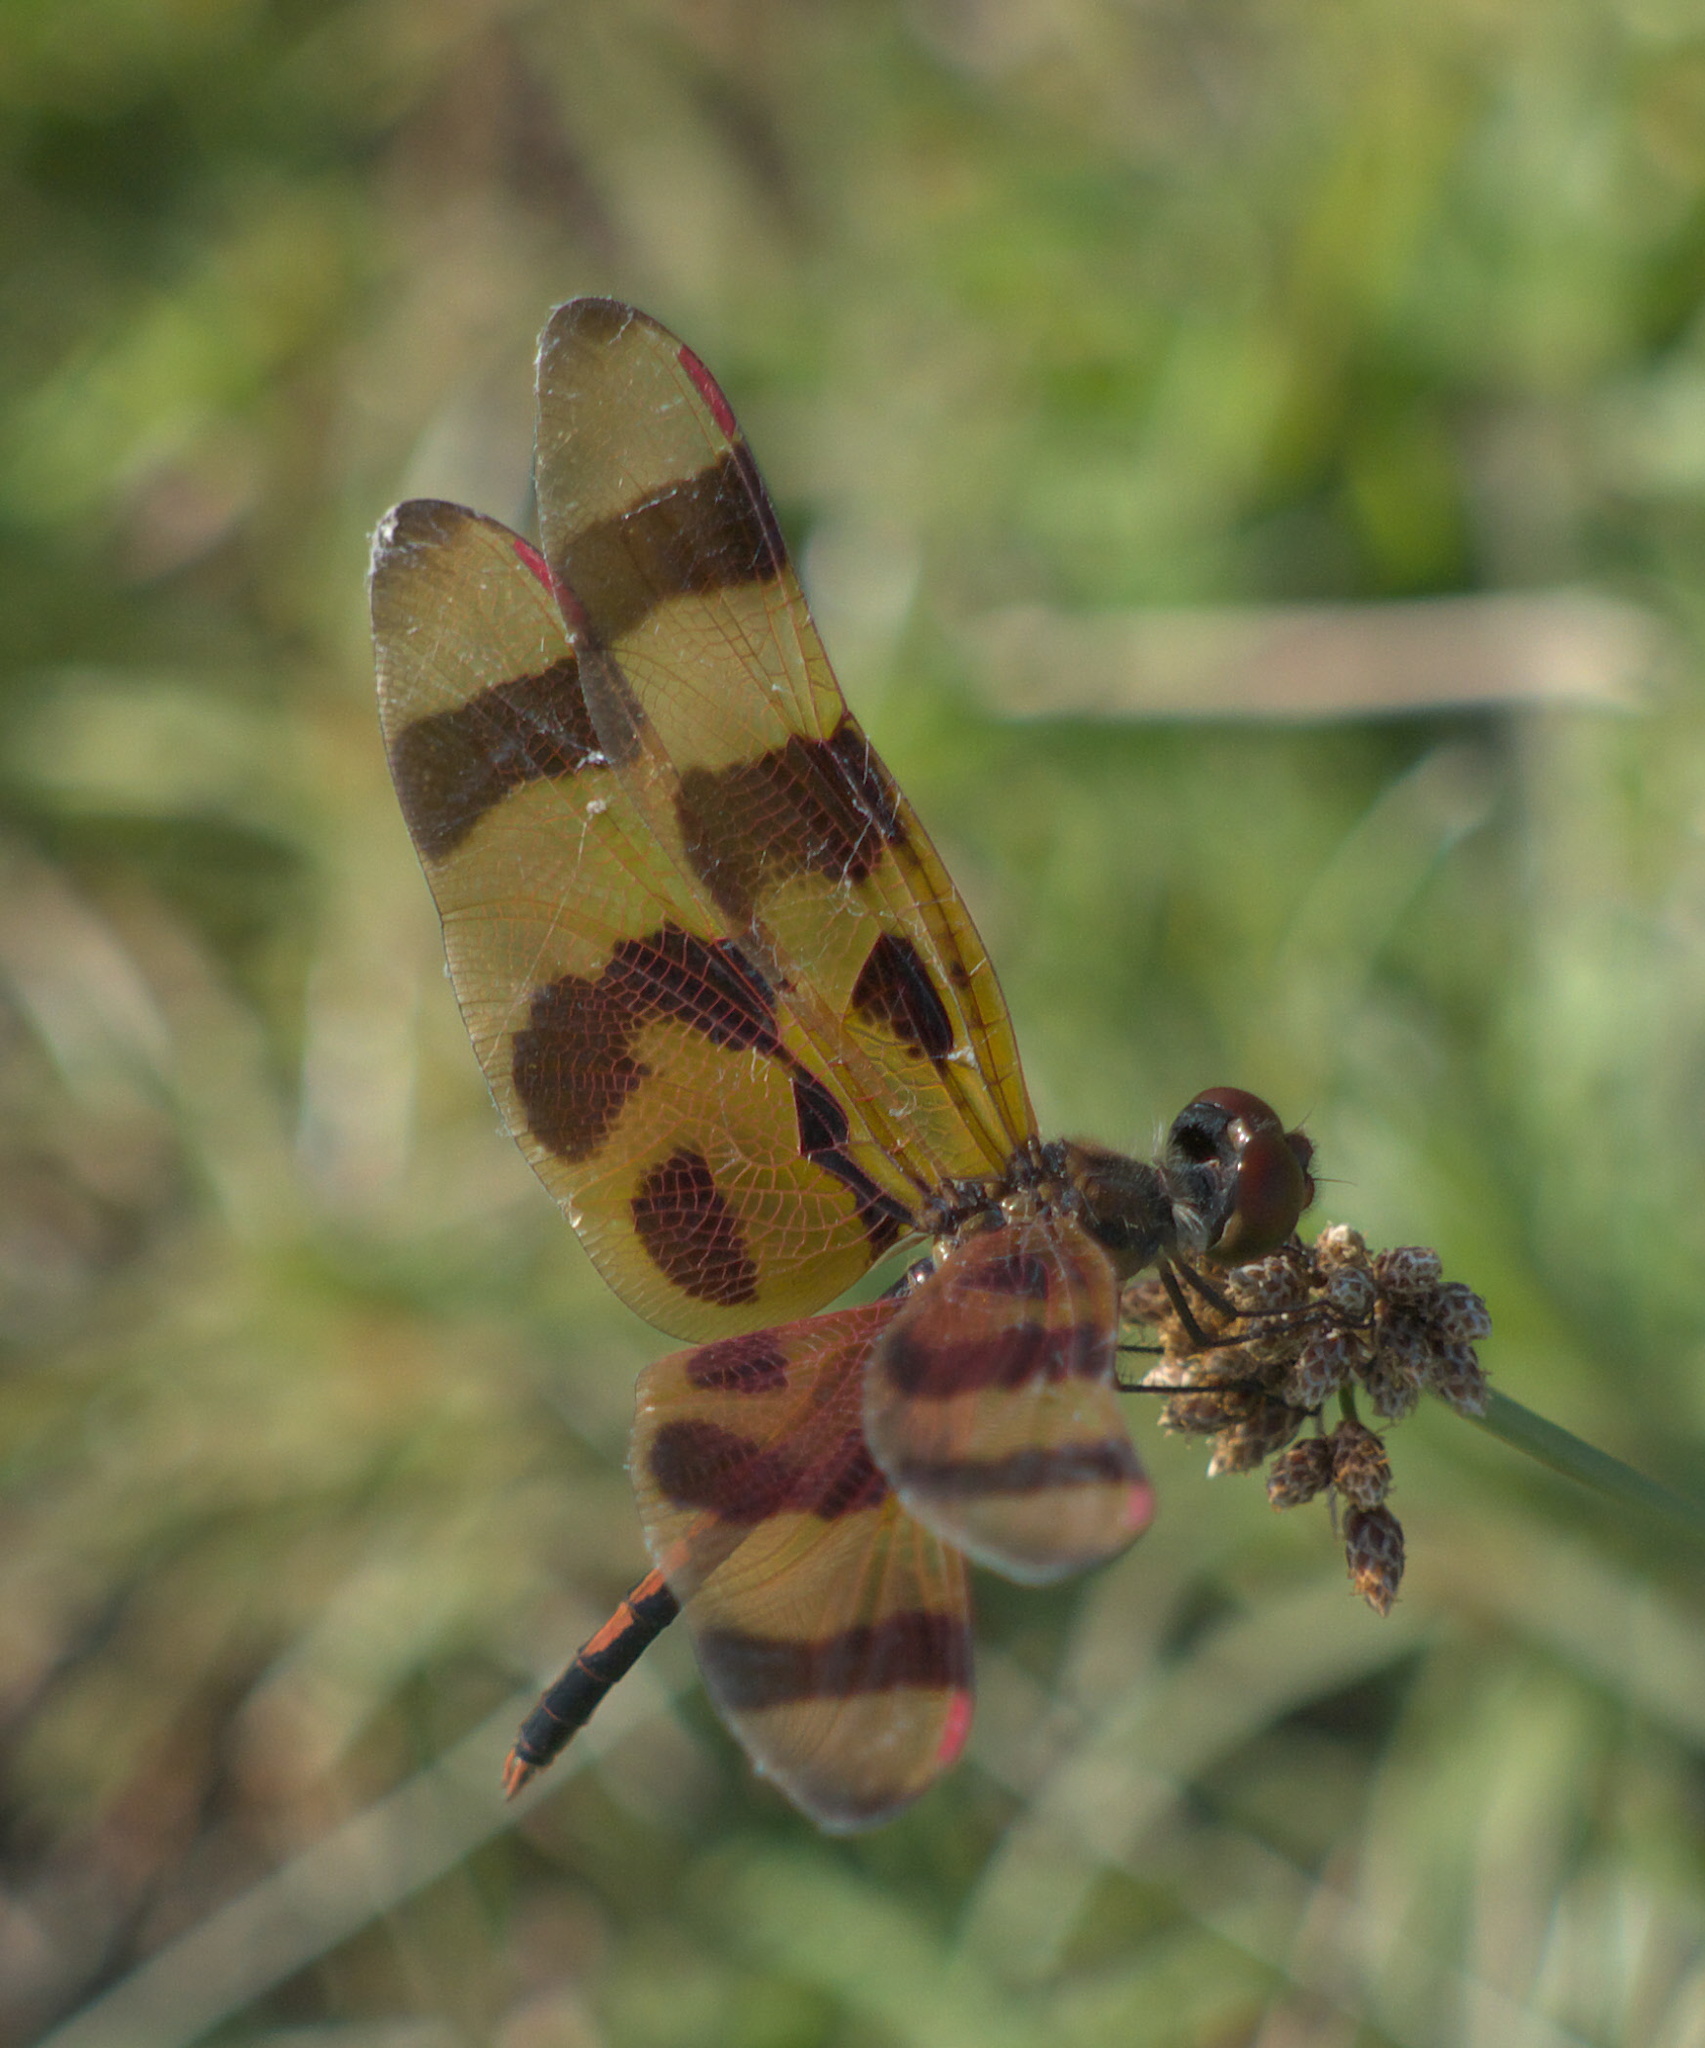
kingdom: Animalia
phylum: Arthropoda
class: Insecta
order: Odonata
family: Libellulidae
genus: Celithemis
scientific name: Celithemis eponina
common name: Halloween pennant
